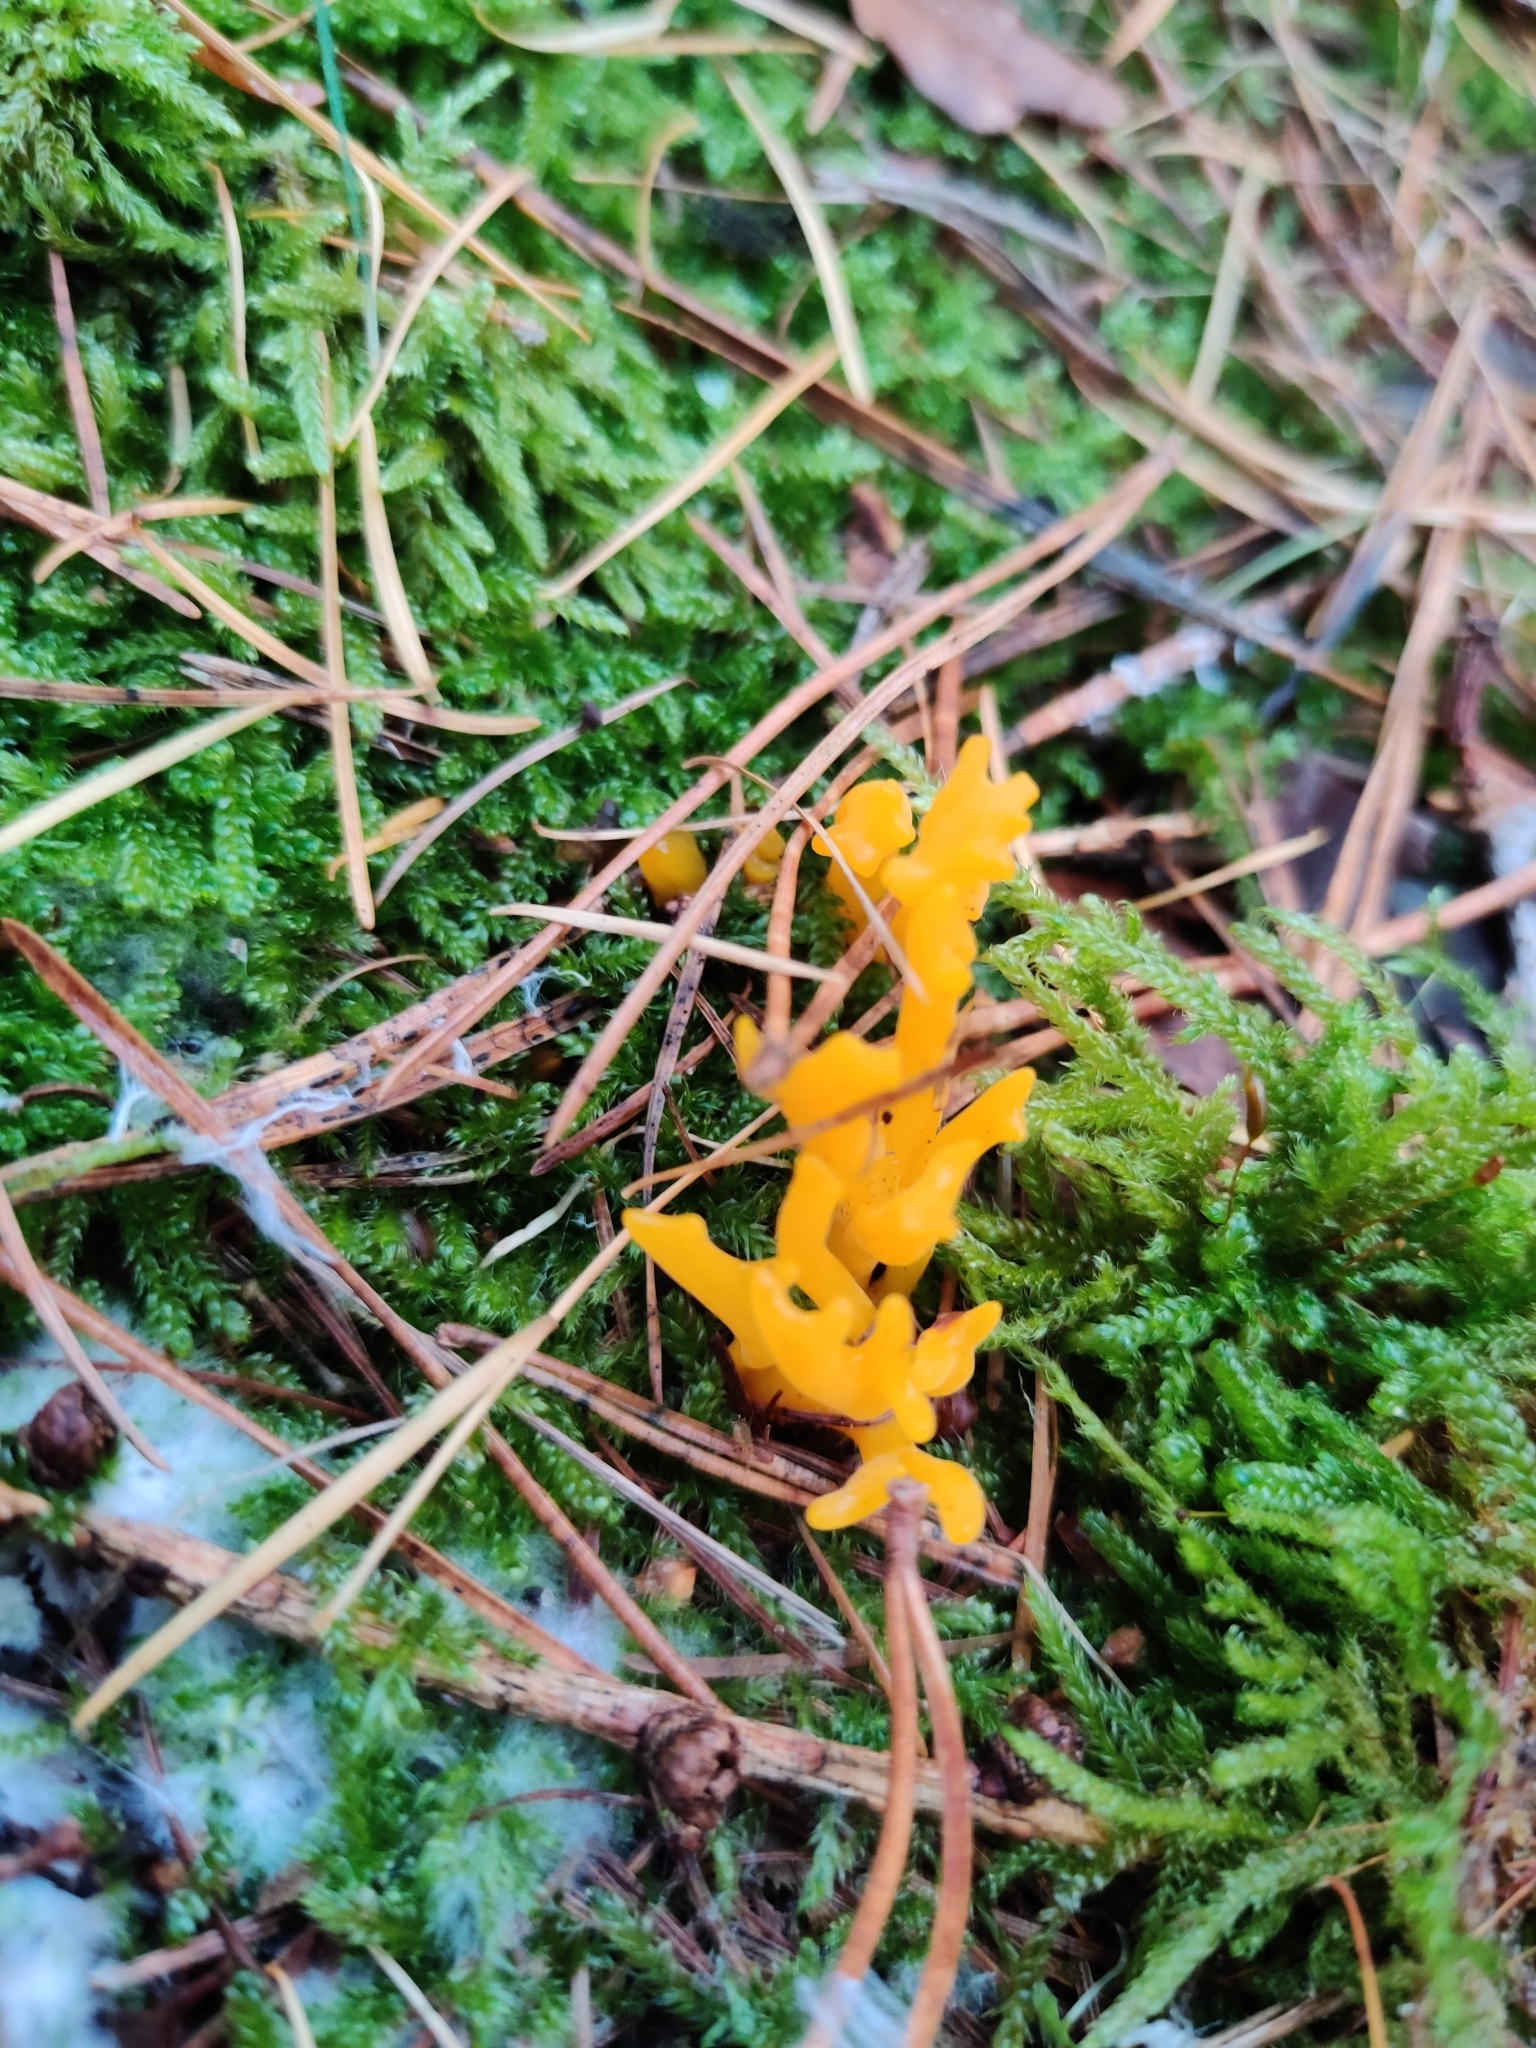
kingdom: Fungi
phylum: Basidiomycota
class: Dacrymycetes
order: Dacrymycetales
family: Dacrymycetaceae
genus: Calocera
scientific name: Calocera viscosa
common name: Yellow stagshorn
